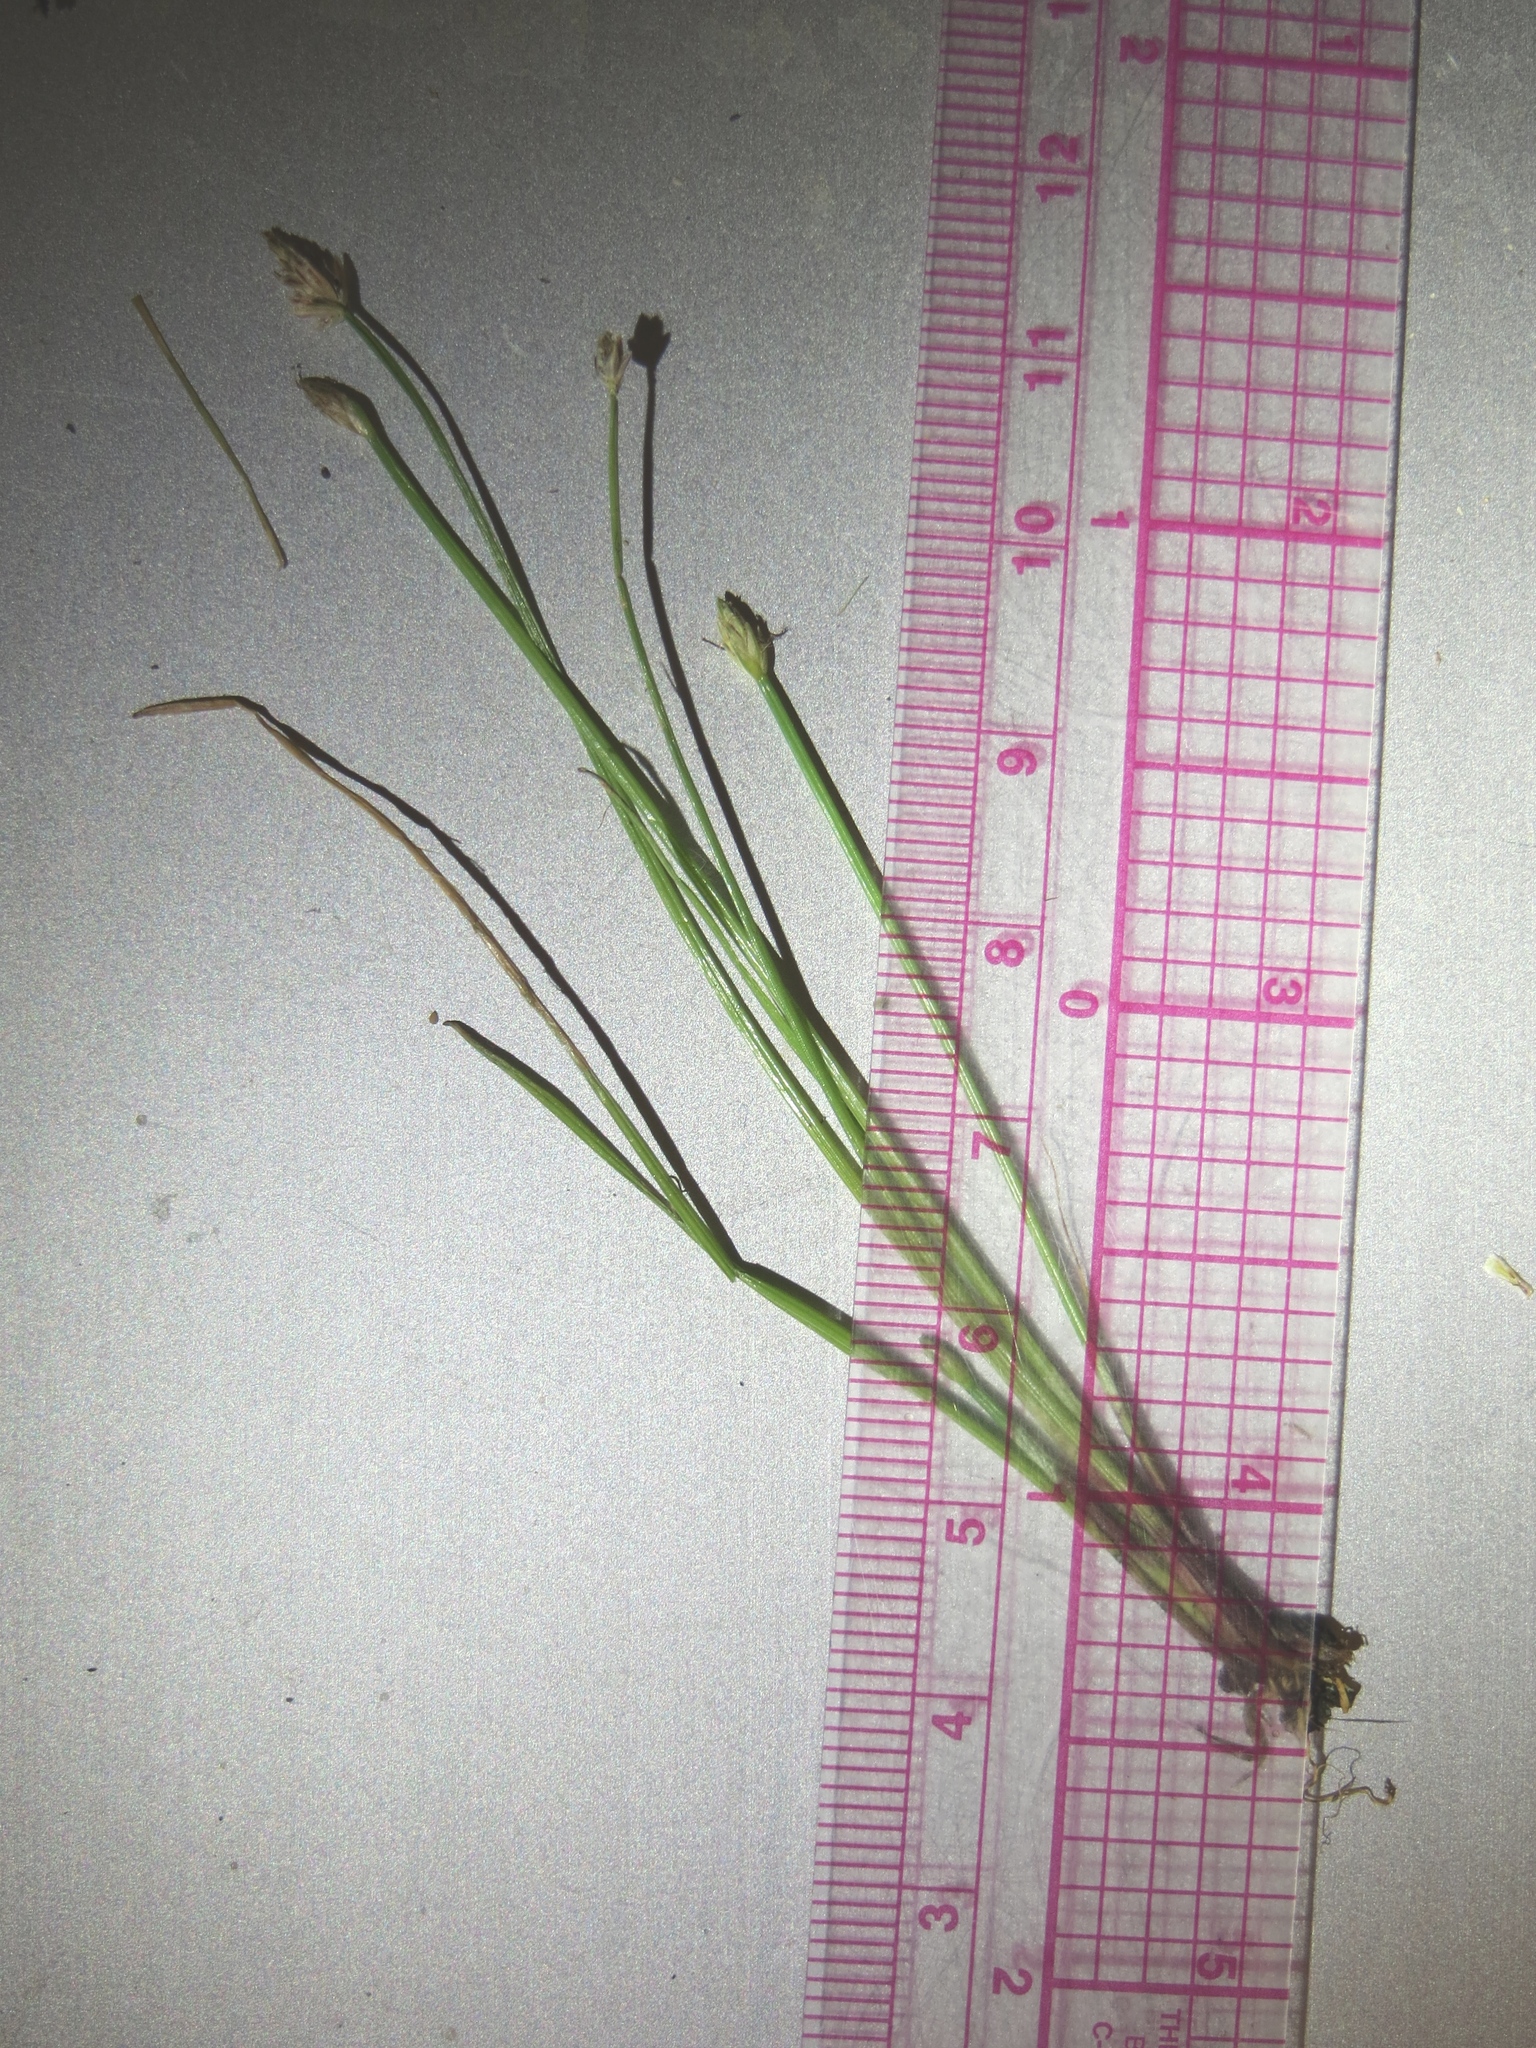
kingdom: Plantae
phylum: Tracheophyta
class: Liliopsida
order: Poales
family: Cyperaceae
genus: Eleocharis
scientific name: Eleocharis flavescens
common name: Yellow spikerush
